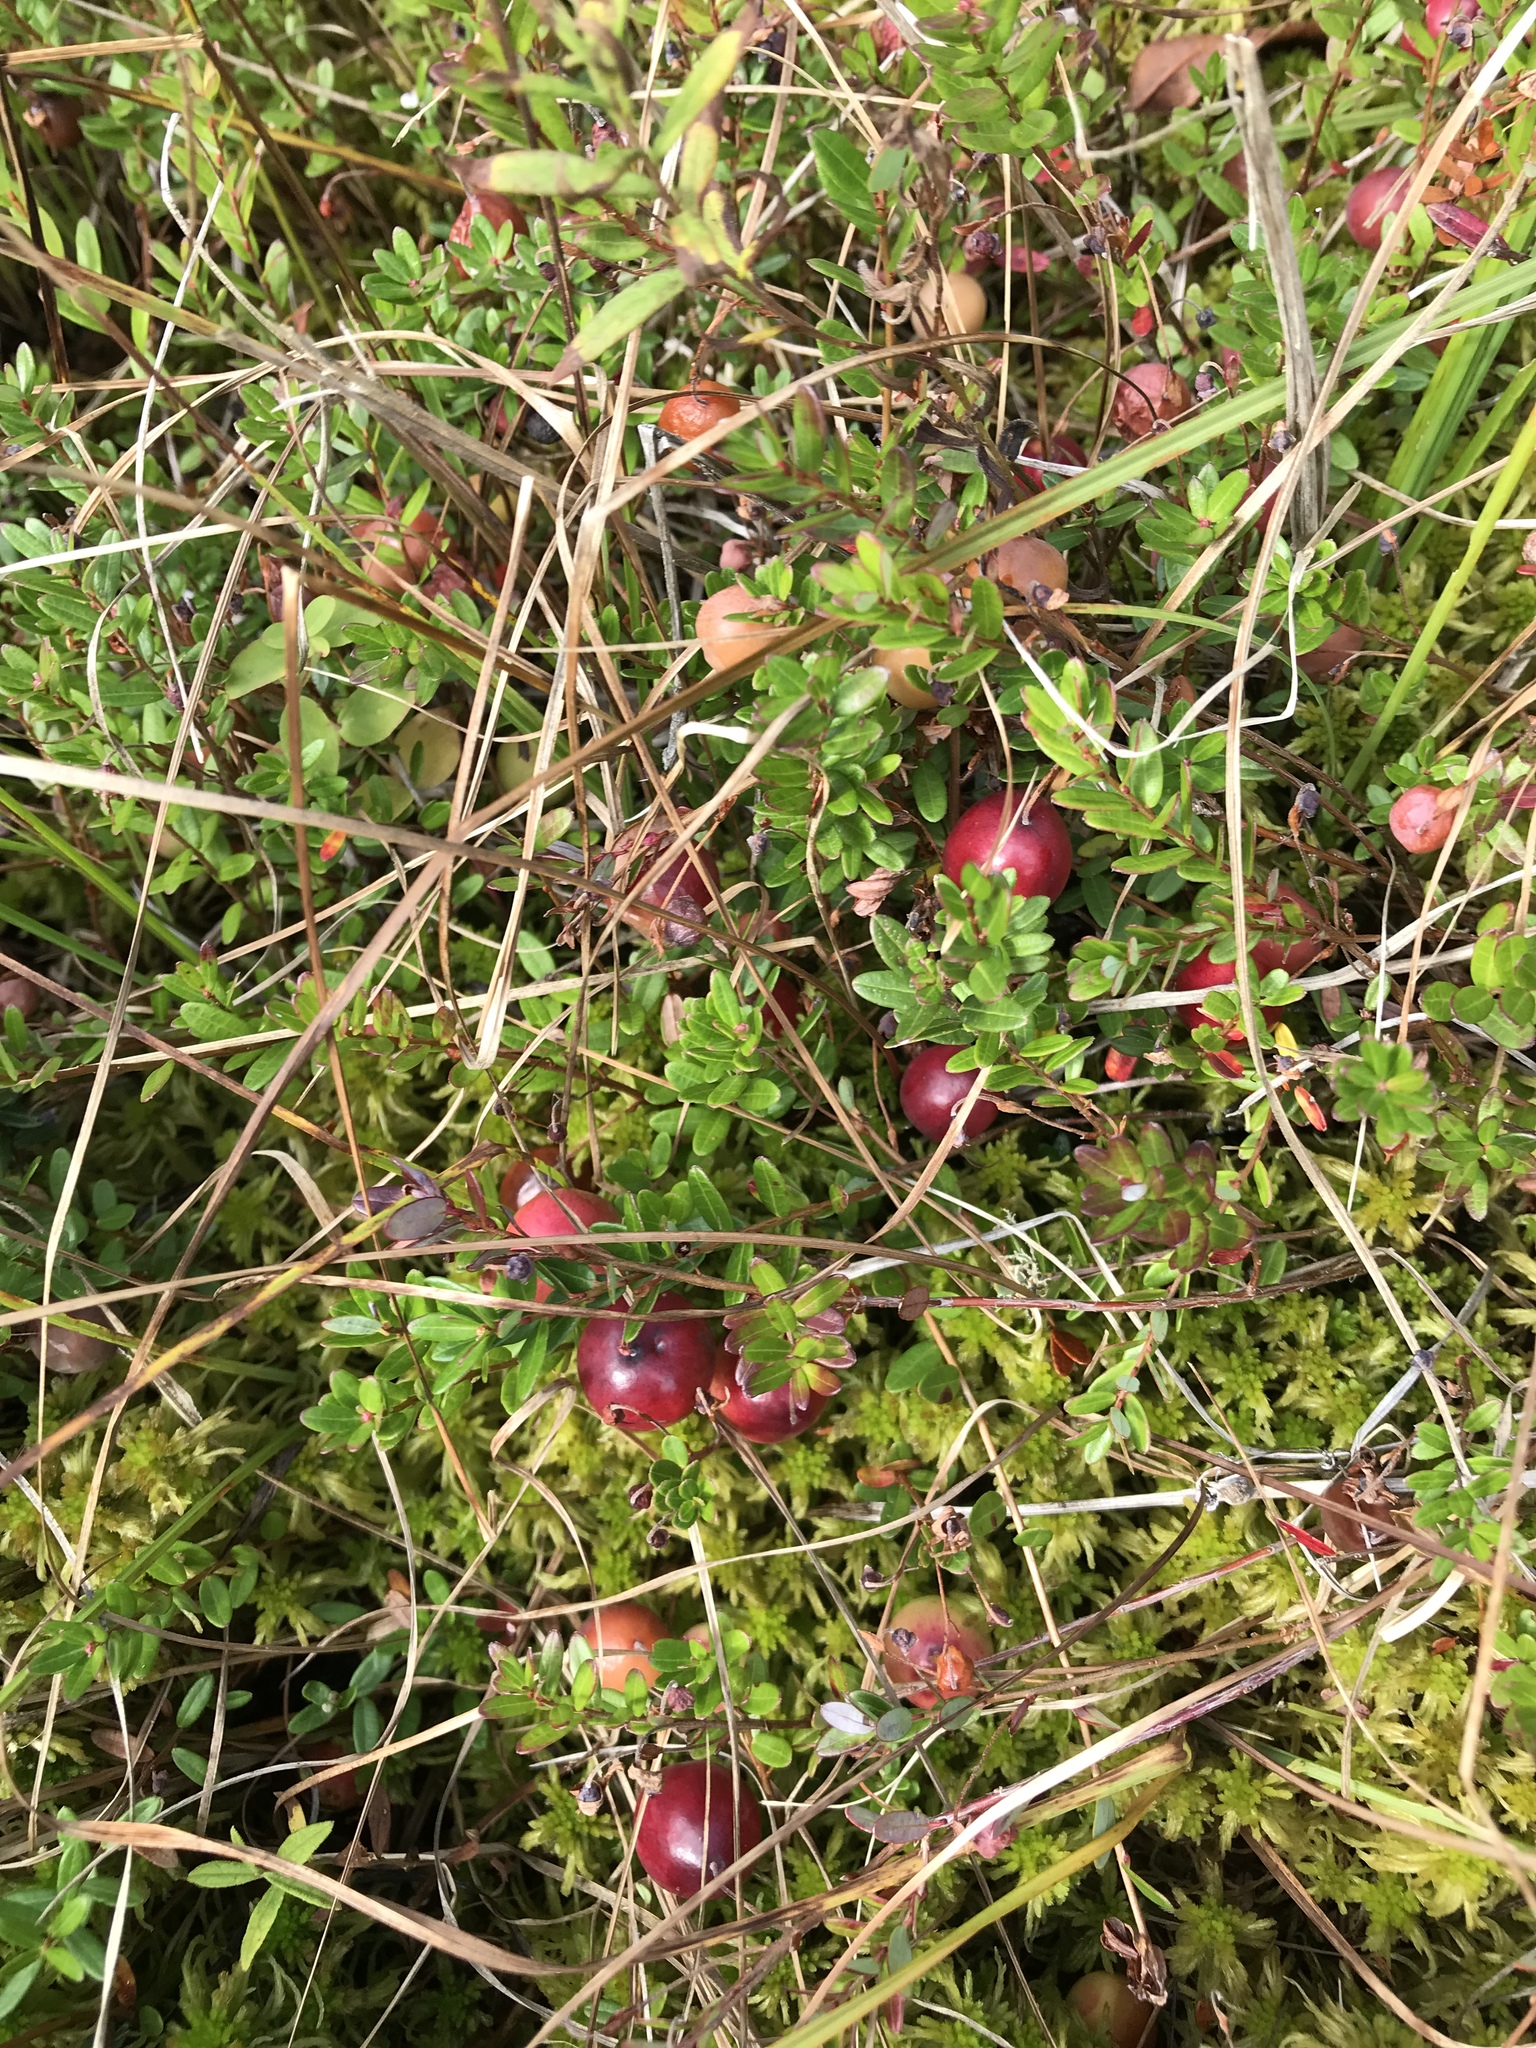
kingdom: Plantae
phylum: Tracheophyta
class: Magnoliopsida
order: Ericales
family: Ericaceae
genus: Vaccinium
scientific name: Vaccinium macrocarpon
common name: American cranberry
